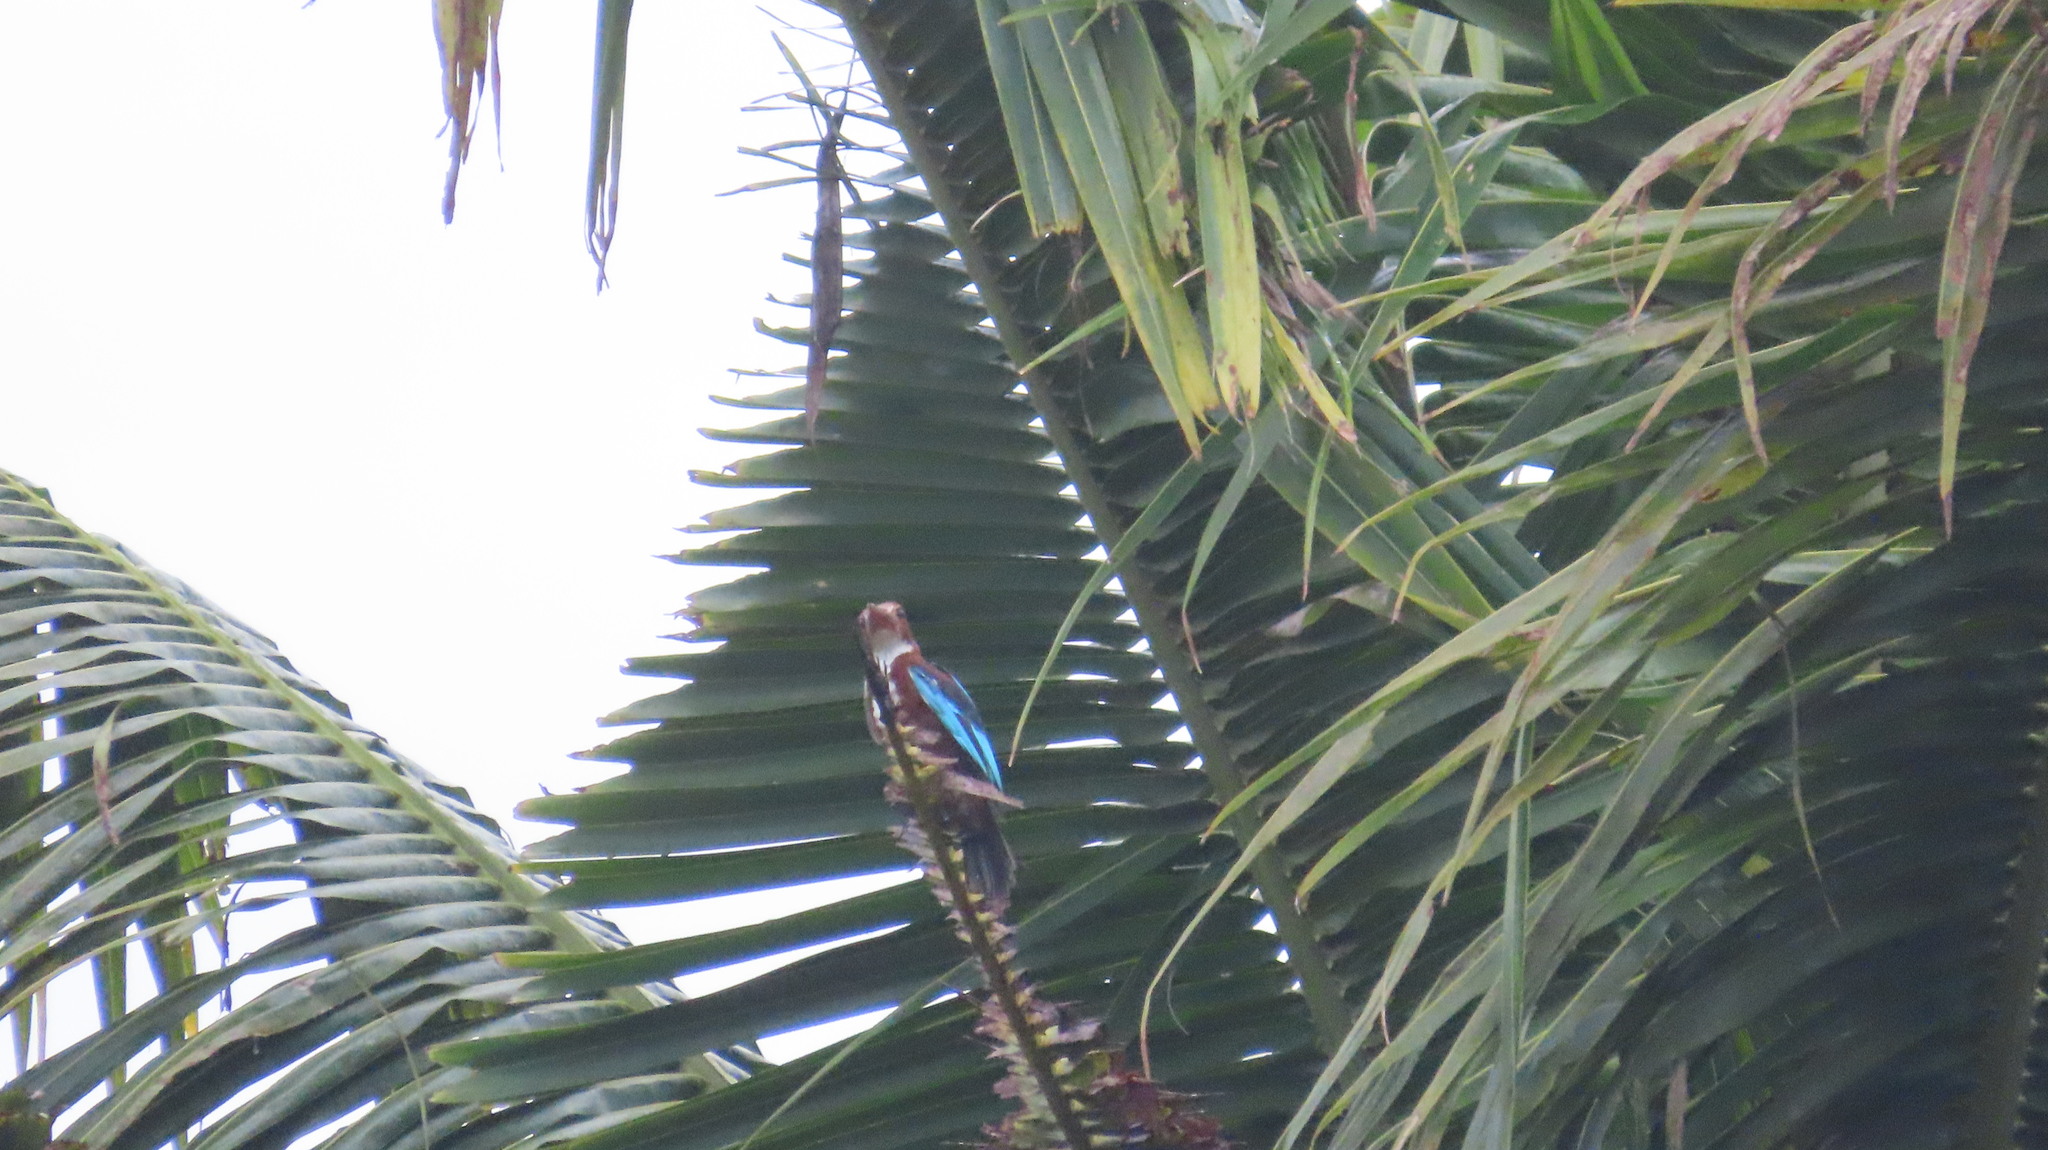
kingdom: Animalia
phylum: Chordata
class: Aves
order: Coraciiformes
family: Alcedinidae
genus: Halcyon
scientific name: Halcyon smyrnensis
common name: White-throated kingfisher
